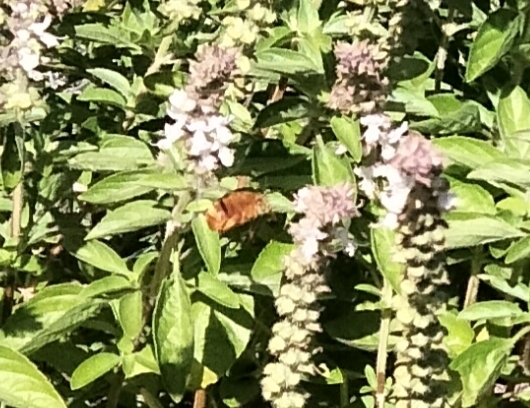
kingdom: Animalia
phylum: Arthropoda
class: Insecta
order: Hymenoptera
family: Apidae
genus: Amegilla
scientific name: Amegilla bombiformis
